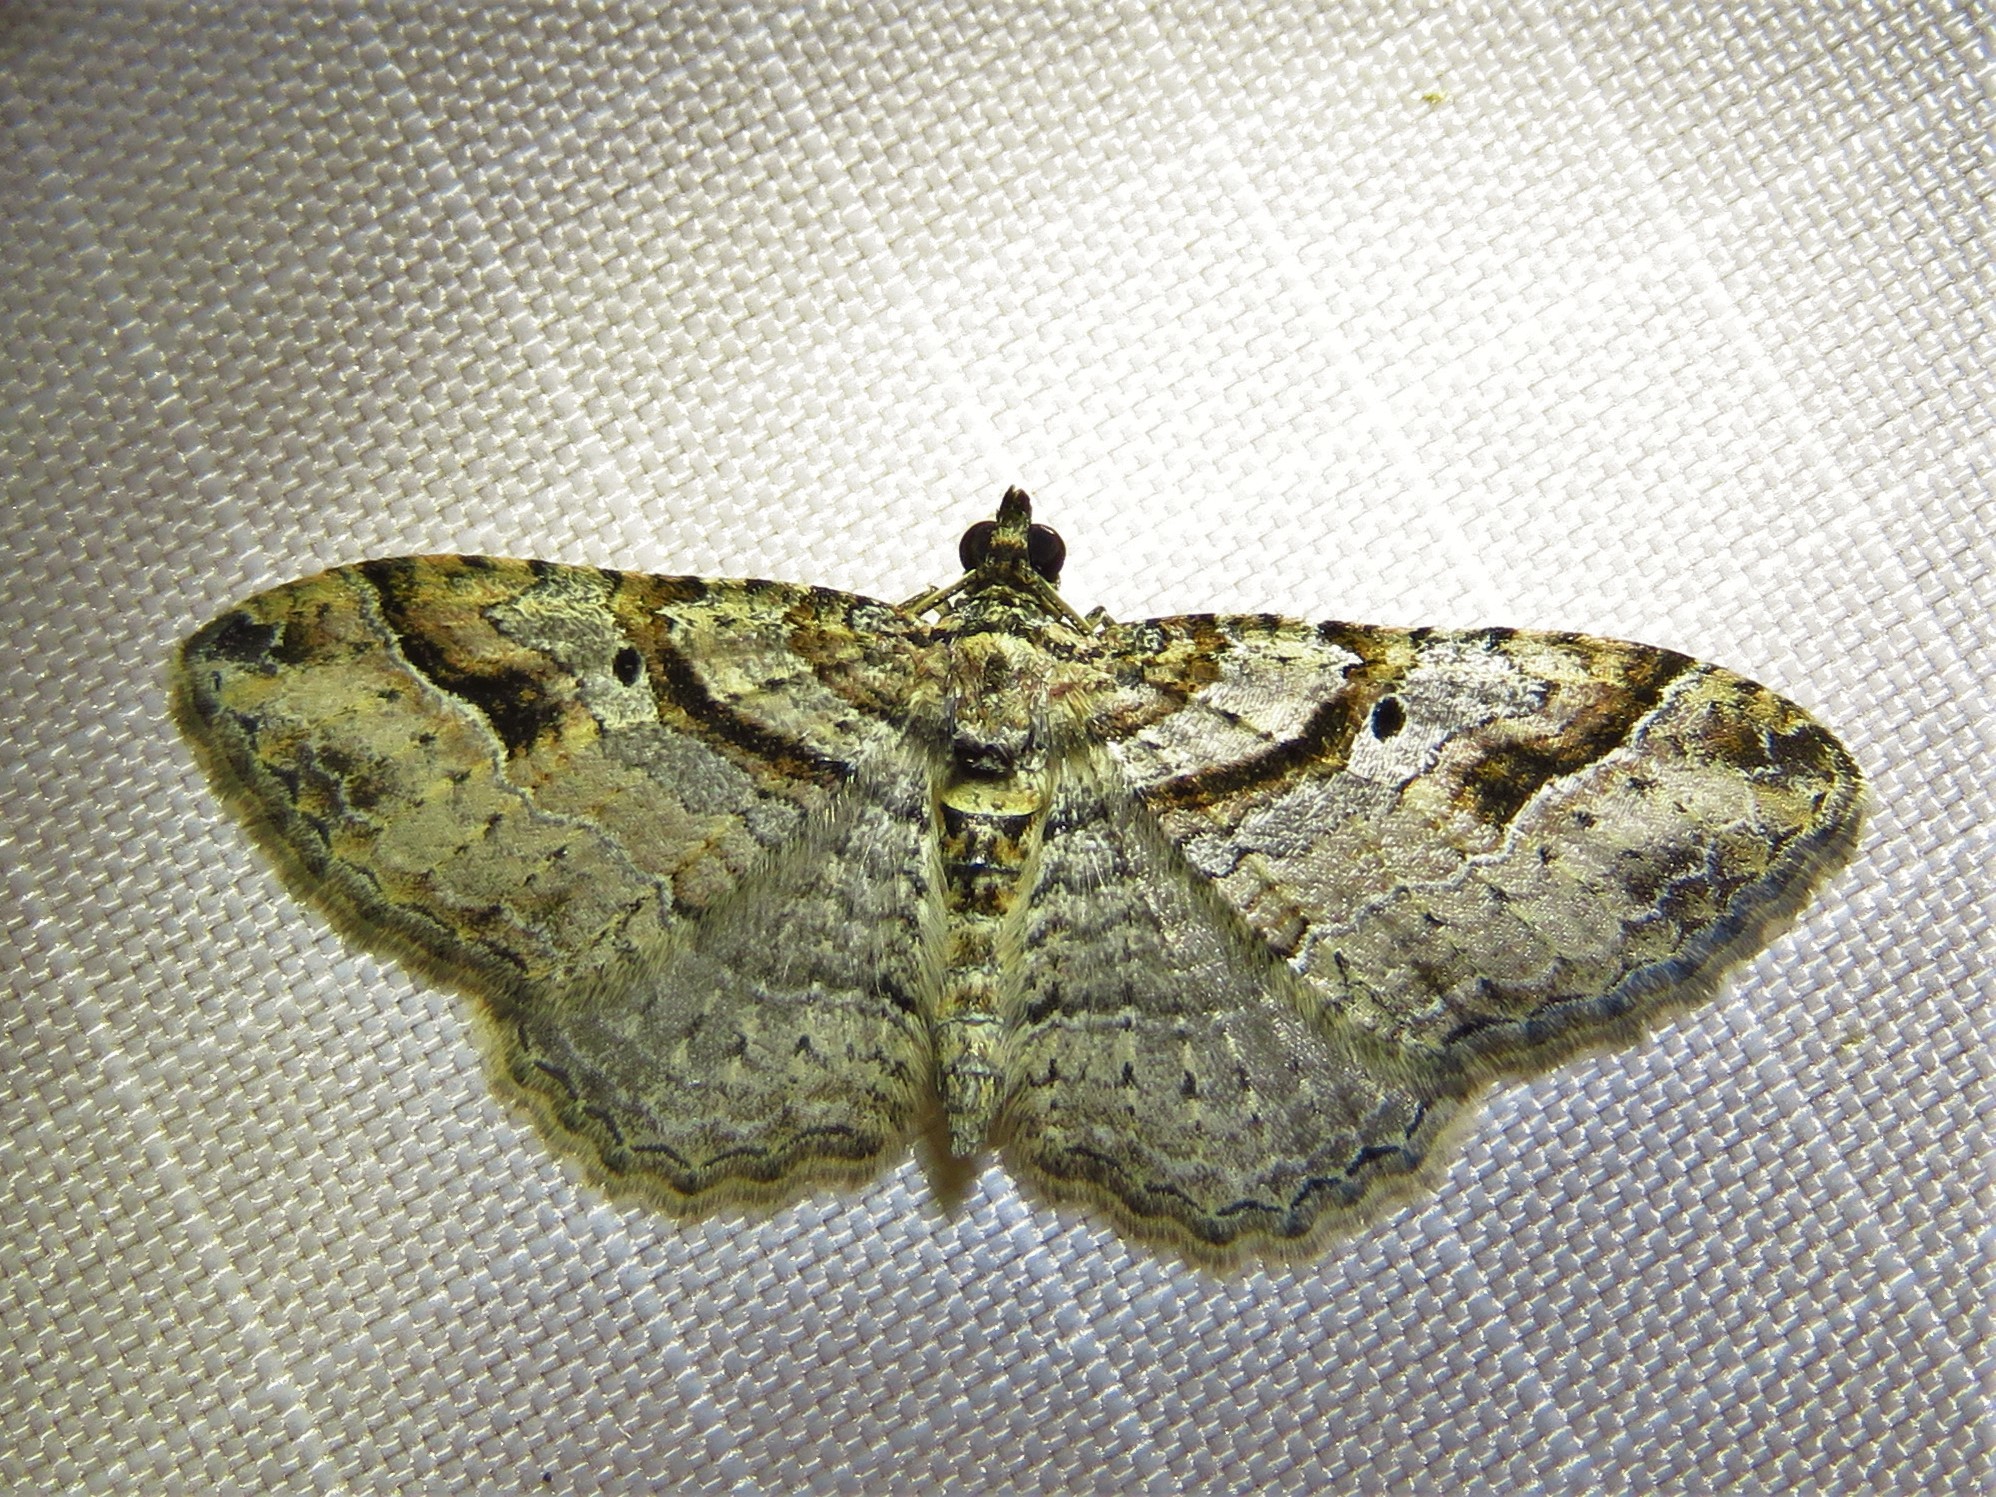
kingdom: Animalia
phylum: Arthropoda
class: Insecta
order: Lepidoptera
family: Geometridae
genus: Costaconvexa
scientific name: Costaconvexa centrostrigaria
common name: Bent-line carpet
